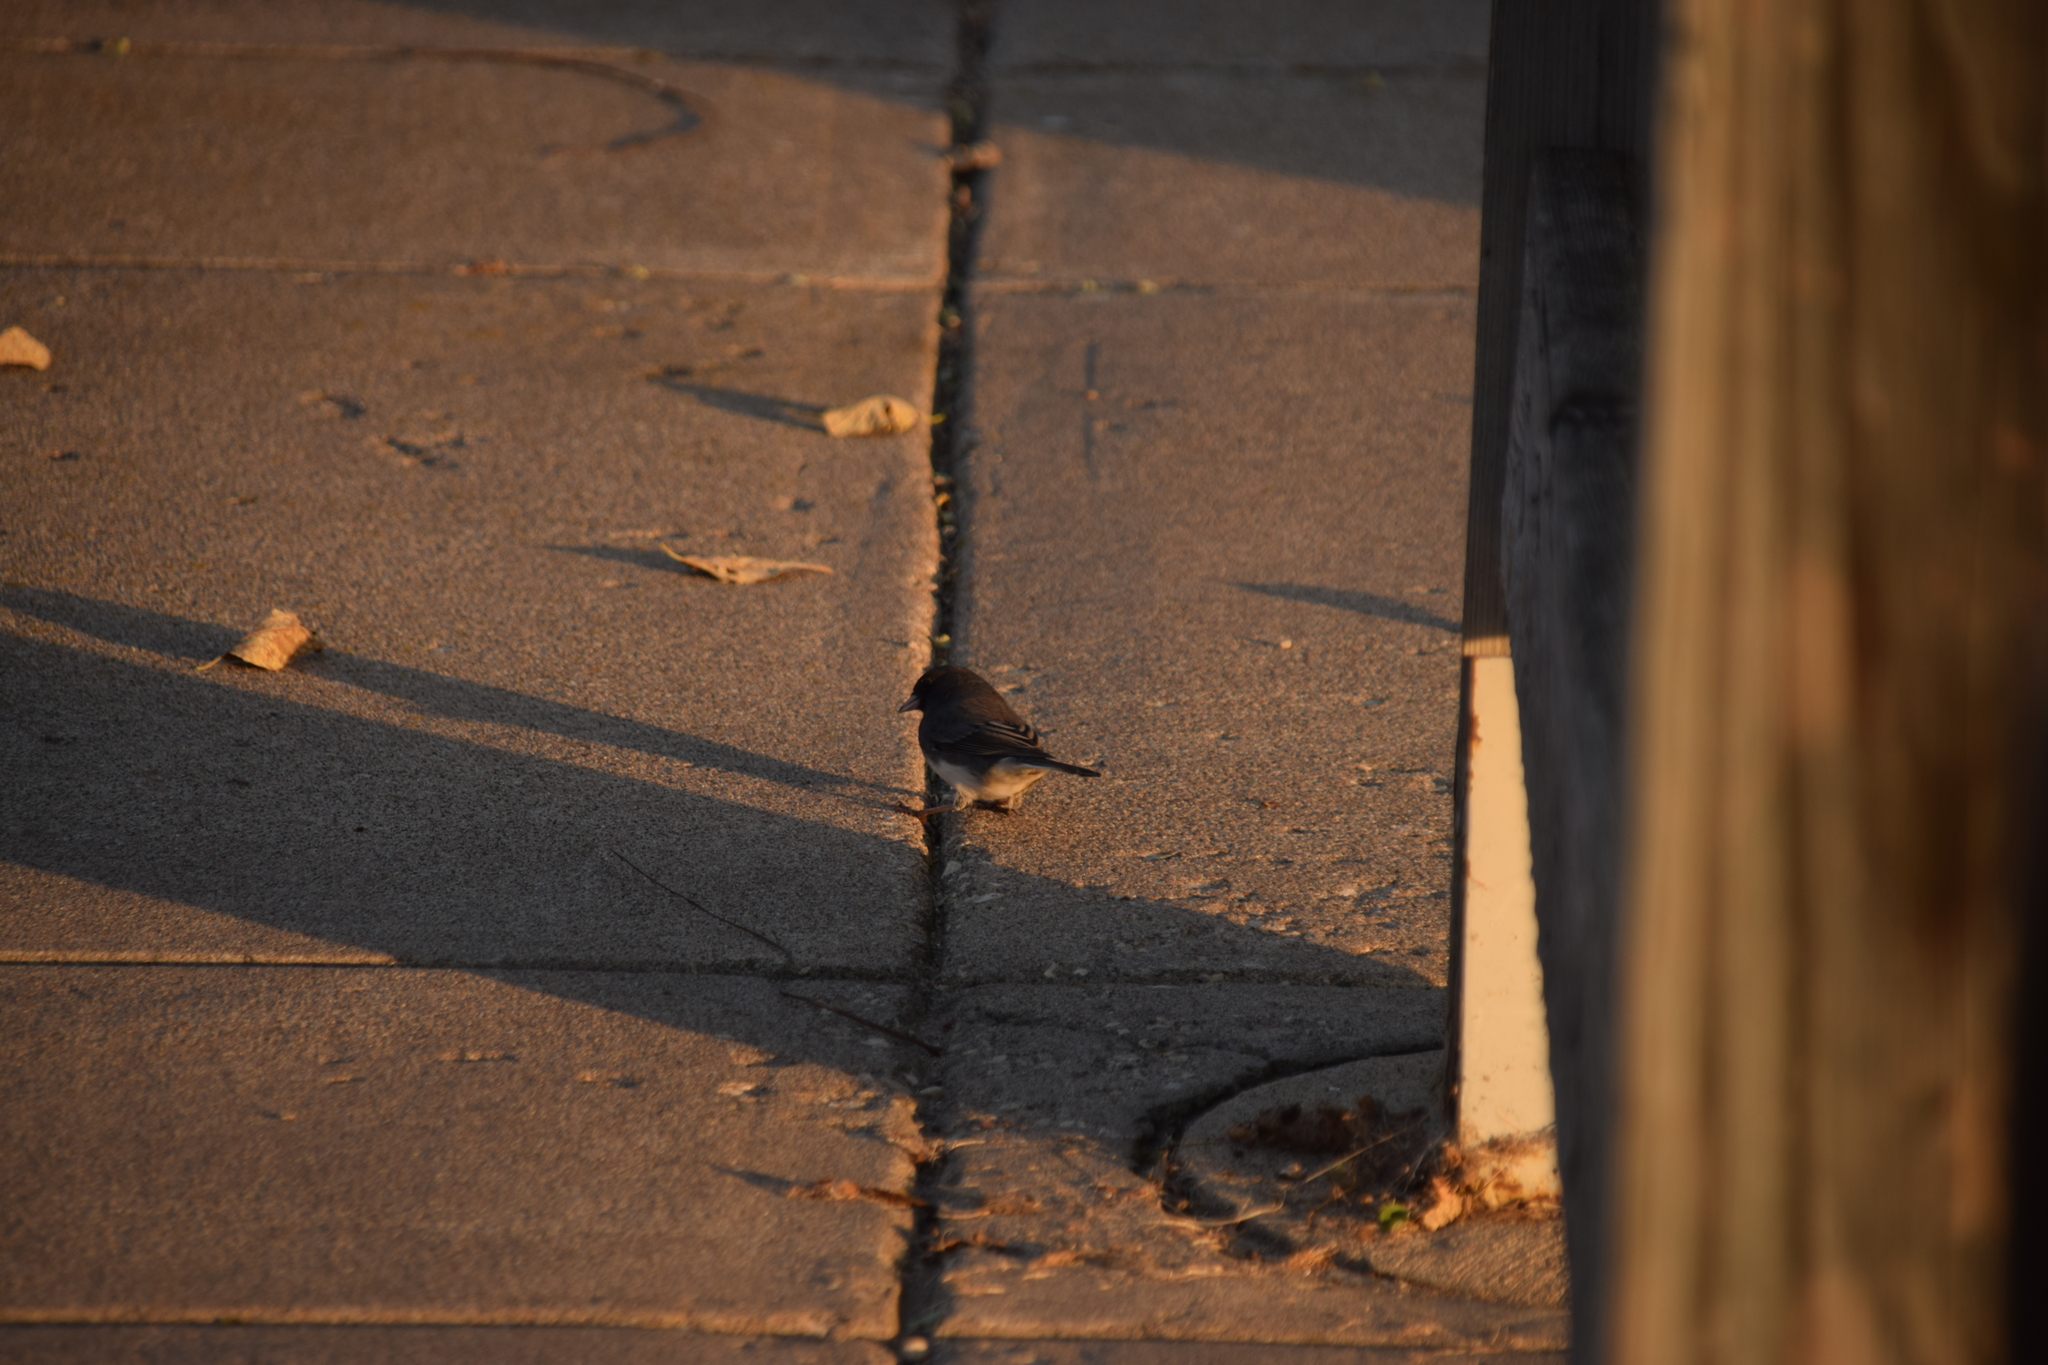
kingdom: Animalia
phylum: Chordata
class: Aves
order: Passeriformes
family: Passerellidae
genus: Junco
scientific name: Junco hyemalis
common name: Dark-eyed junco
